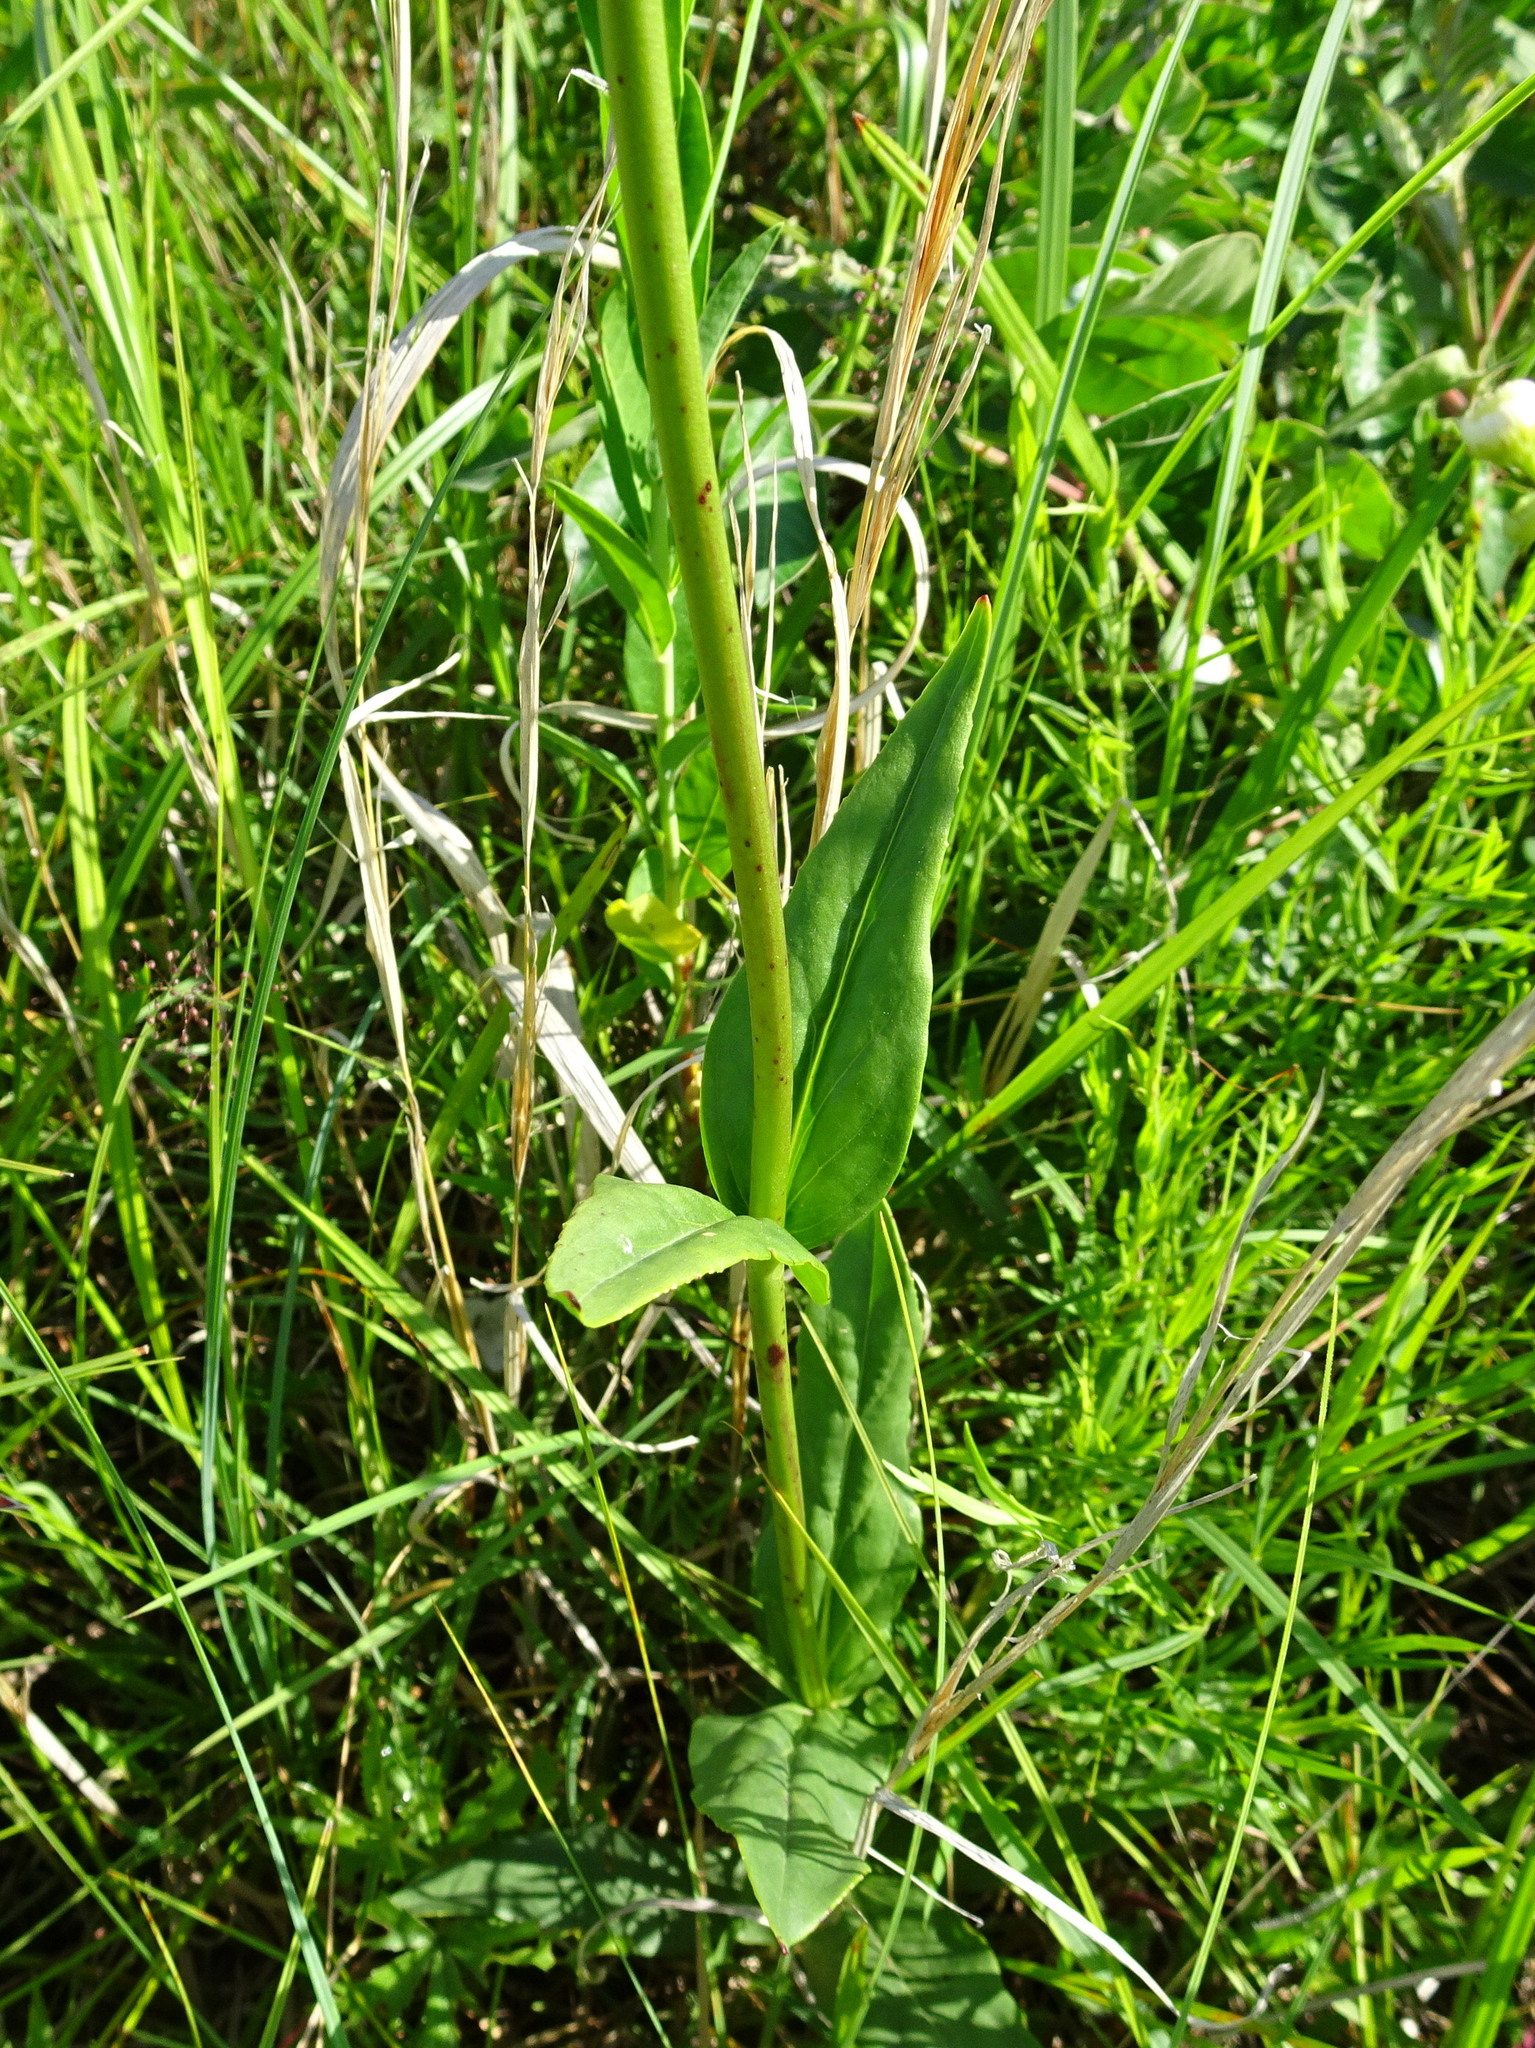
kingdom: Plantae
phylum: Tracheophyta
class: Magnoliopsida
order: Lamiales
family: Plantaginaceae
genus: Penstemon
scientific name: Penstemon tubaeflorus
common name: White wand beardtongue
